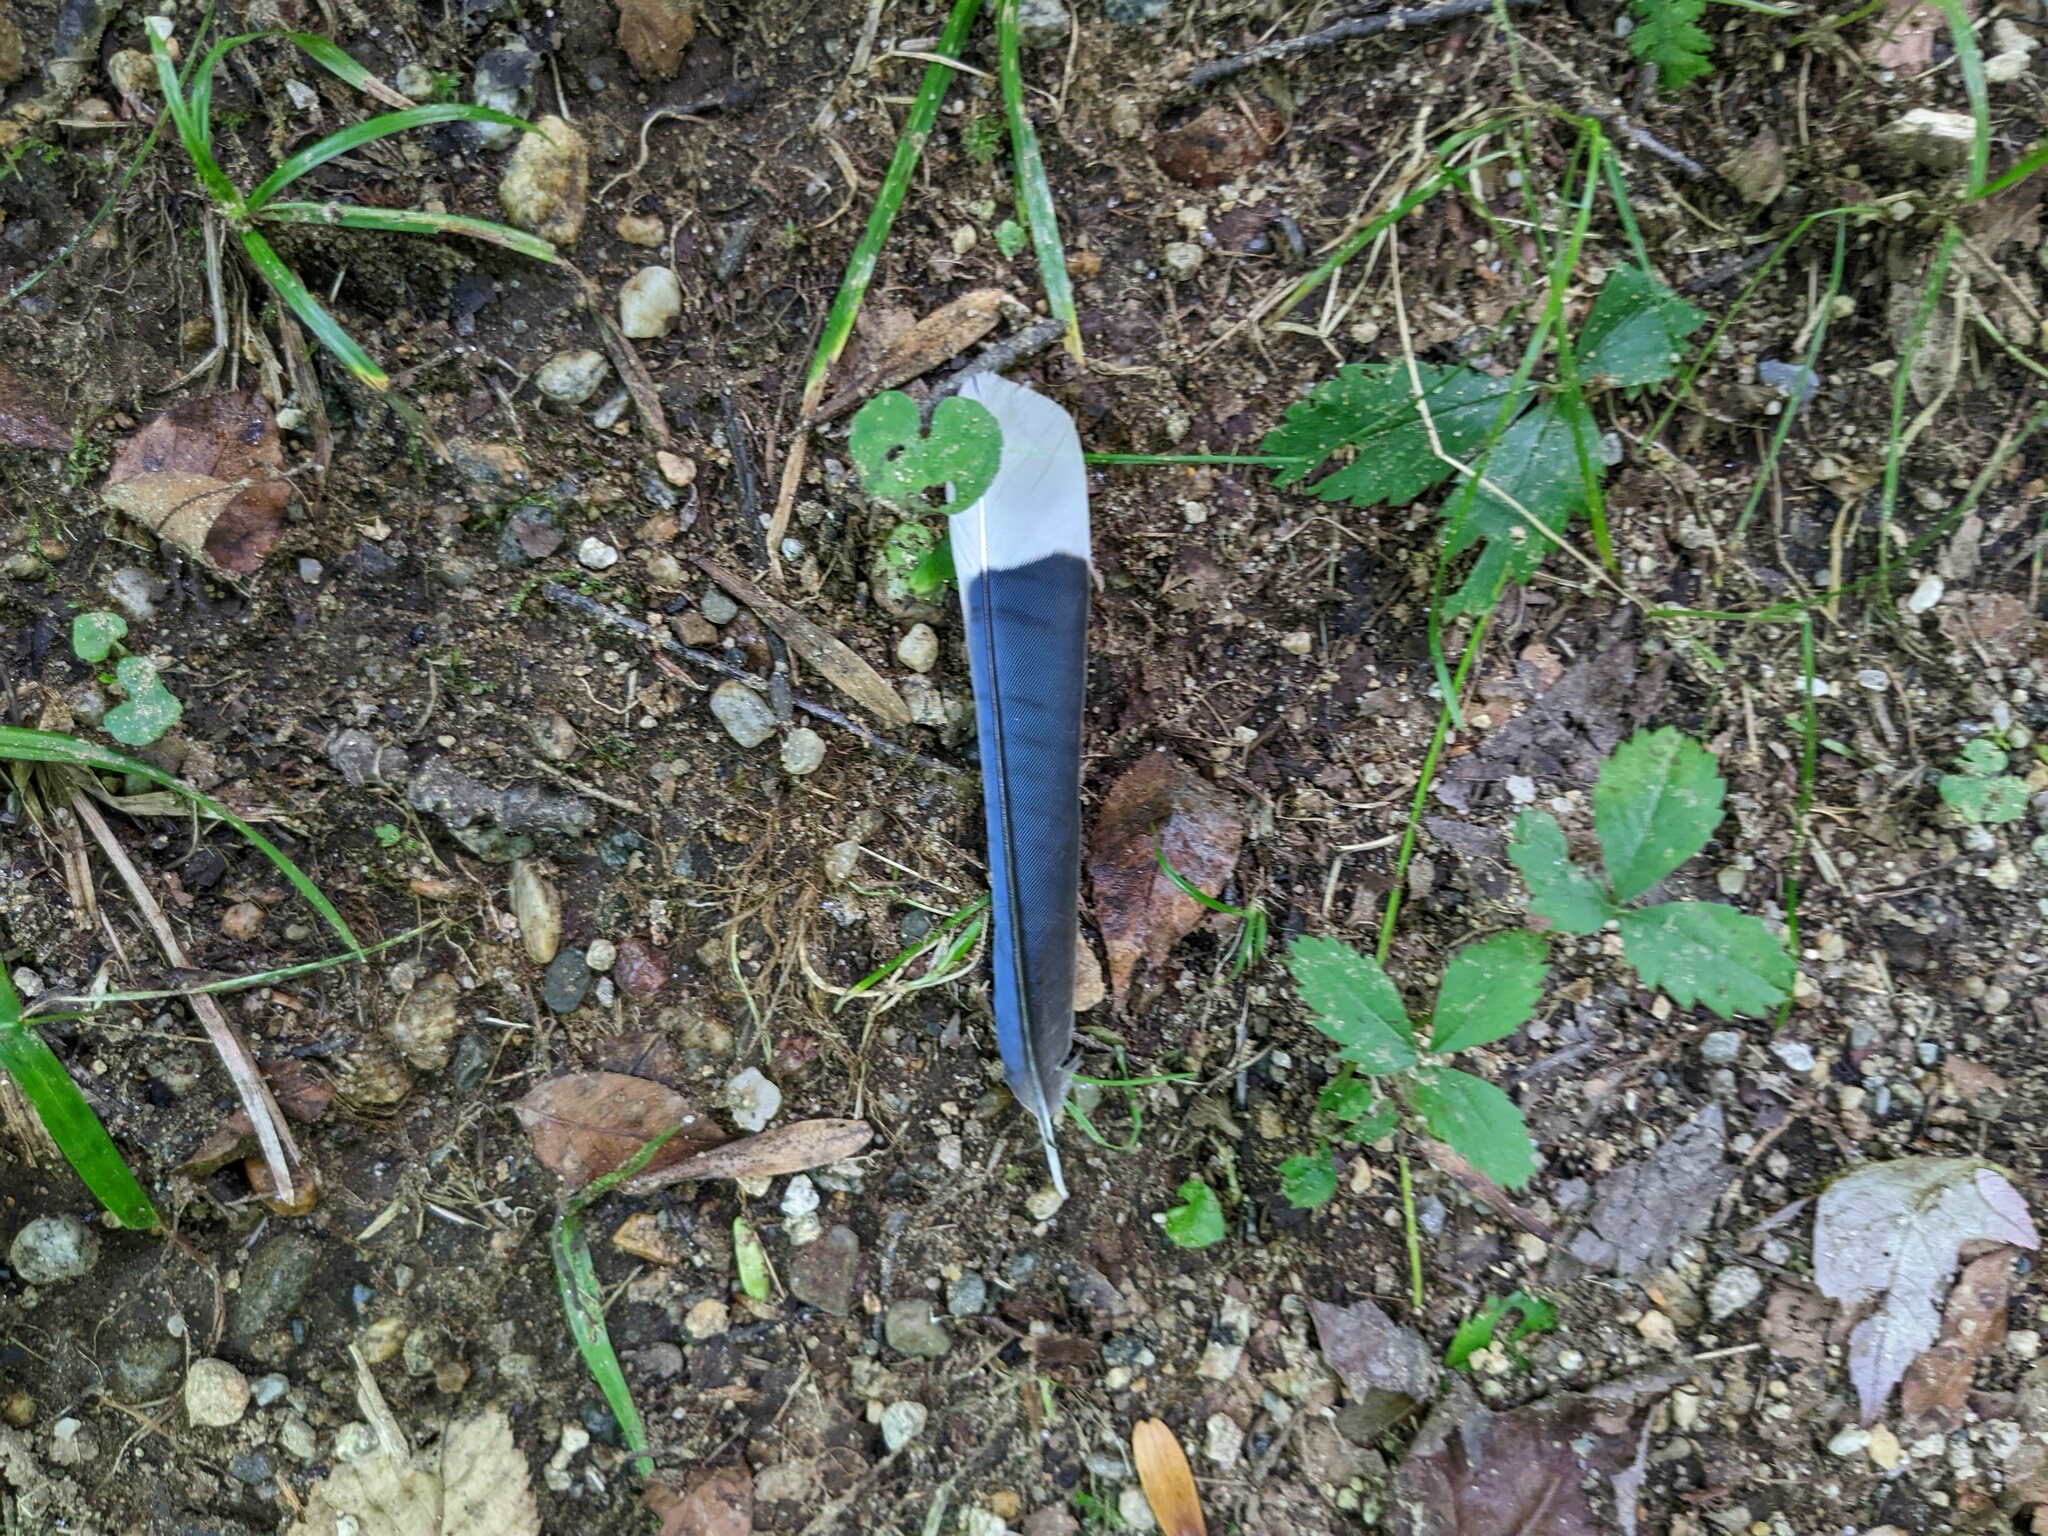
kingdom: Animalia
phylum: Chordata
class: Aves
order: Passeriformes
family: Corvidae
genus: Cyanocitta
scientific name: Cyanocitta cristata
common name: Blue jay
